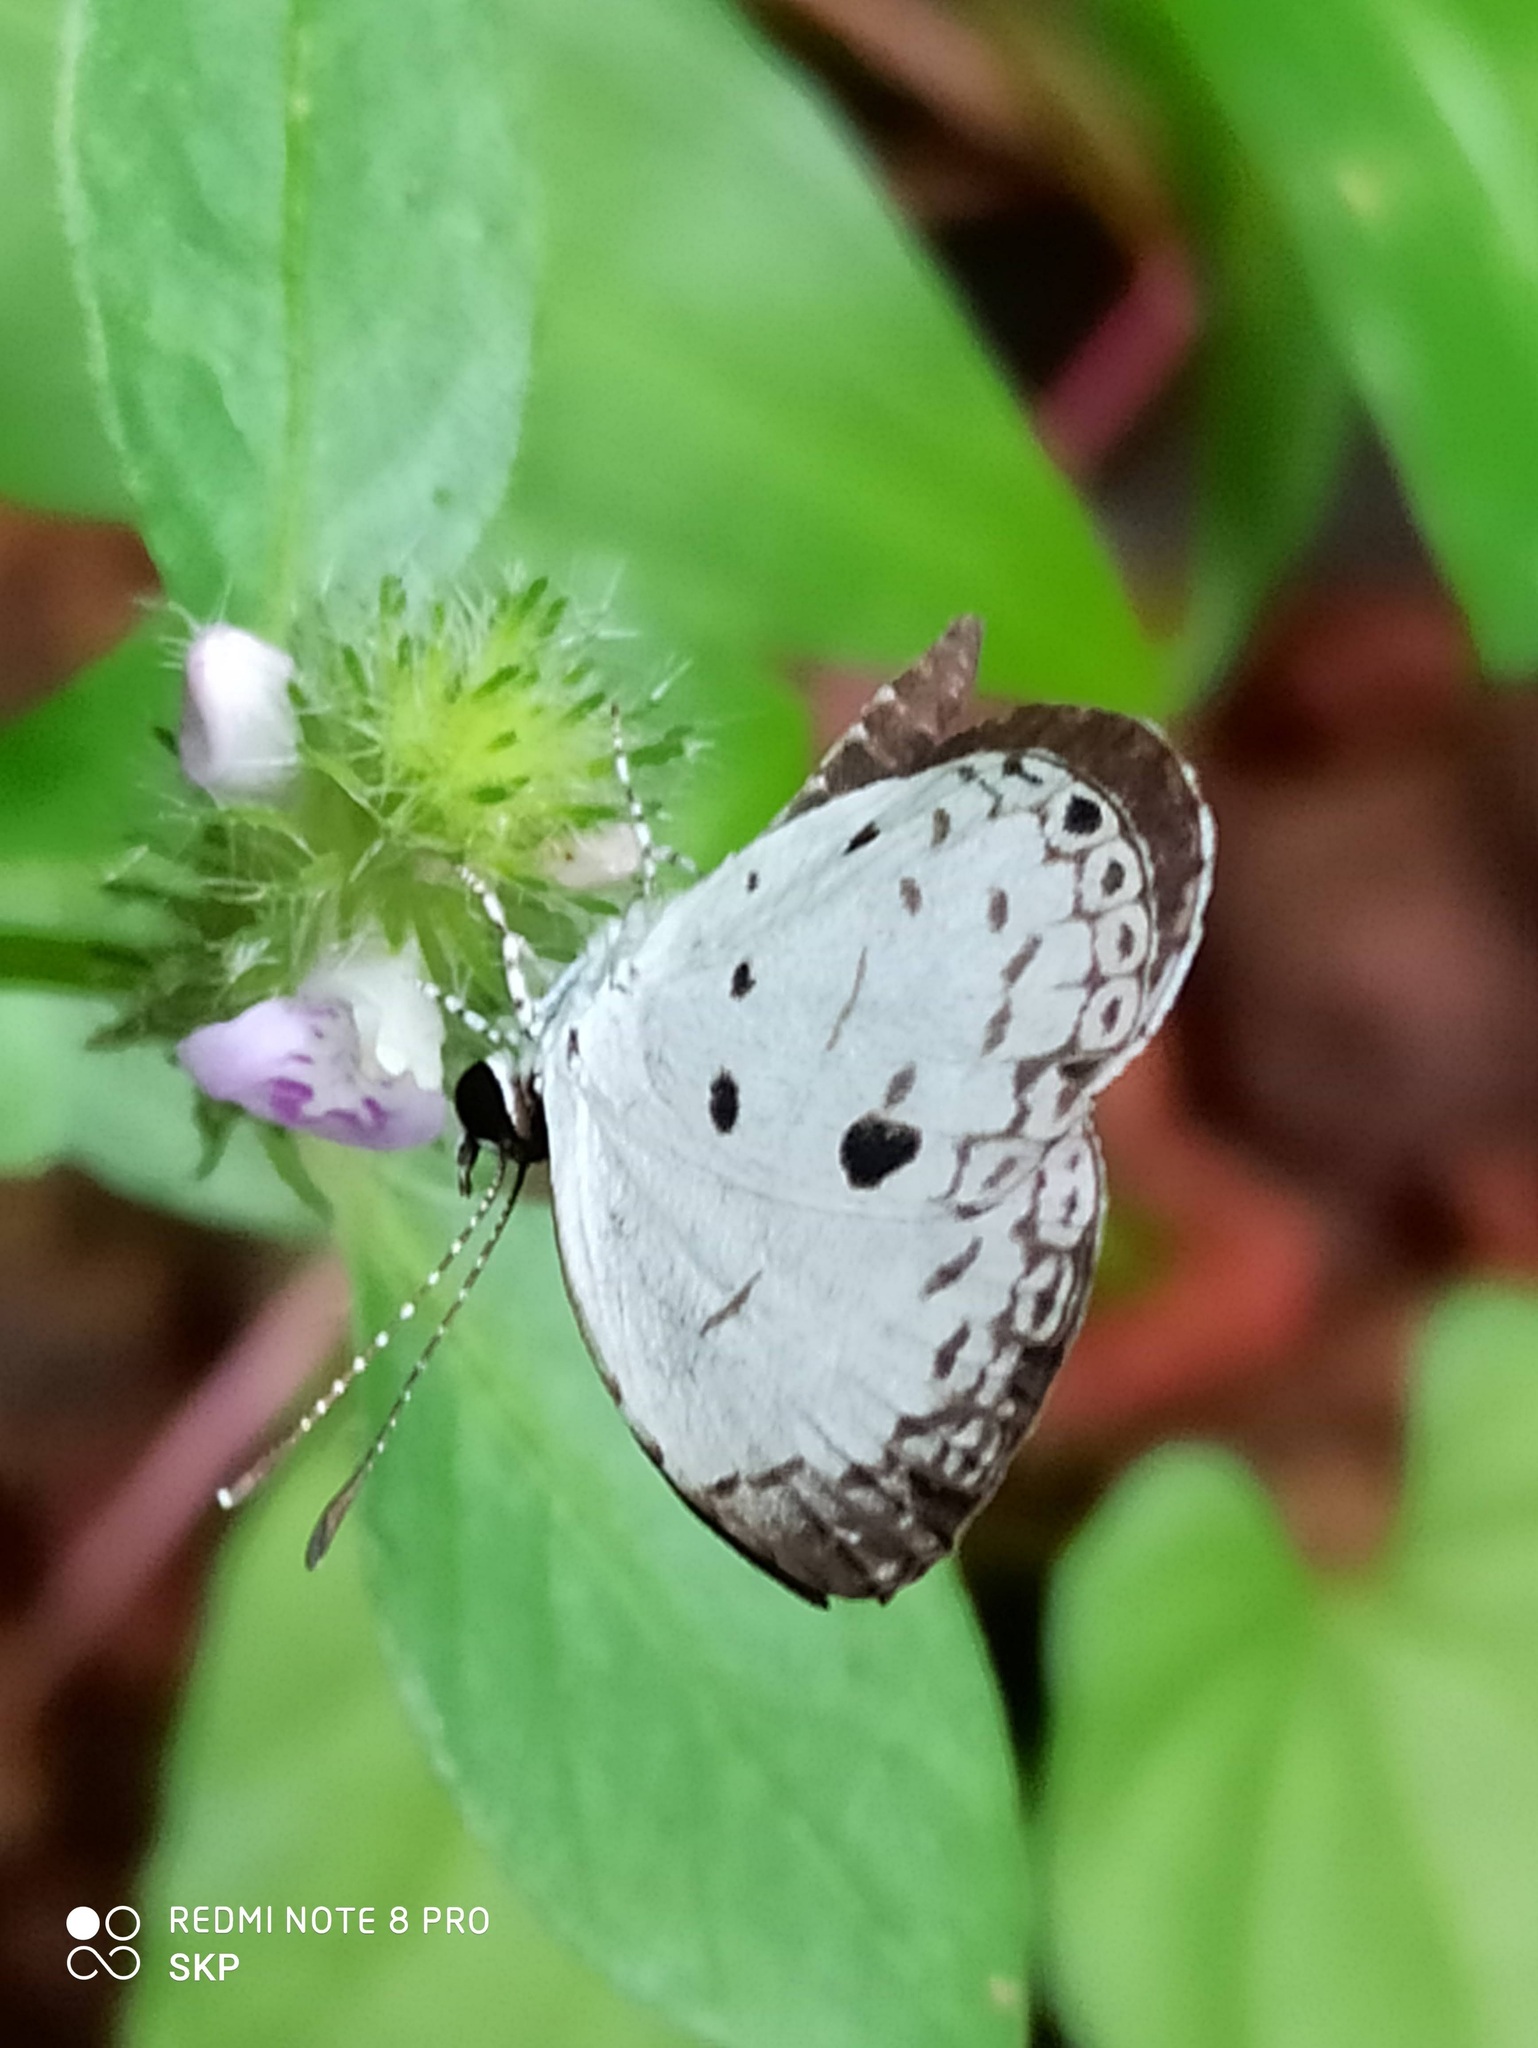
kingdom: Animalia
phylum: Arthropoda
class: Insecta
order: Lepidoptera
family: Lycaenidae
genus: Neopithecops
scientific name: Neopithecops zalmora
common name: Quaker
